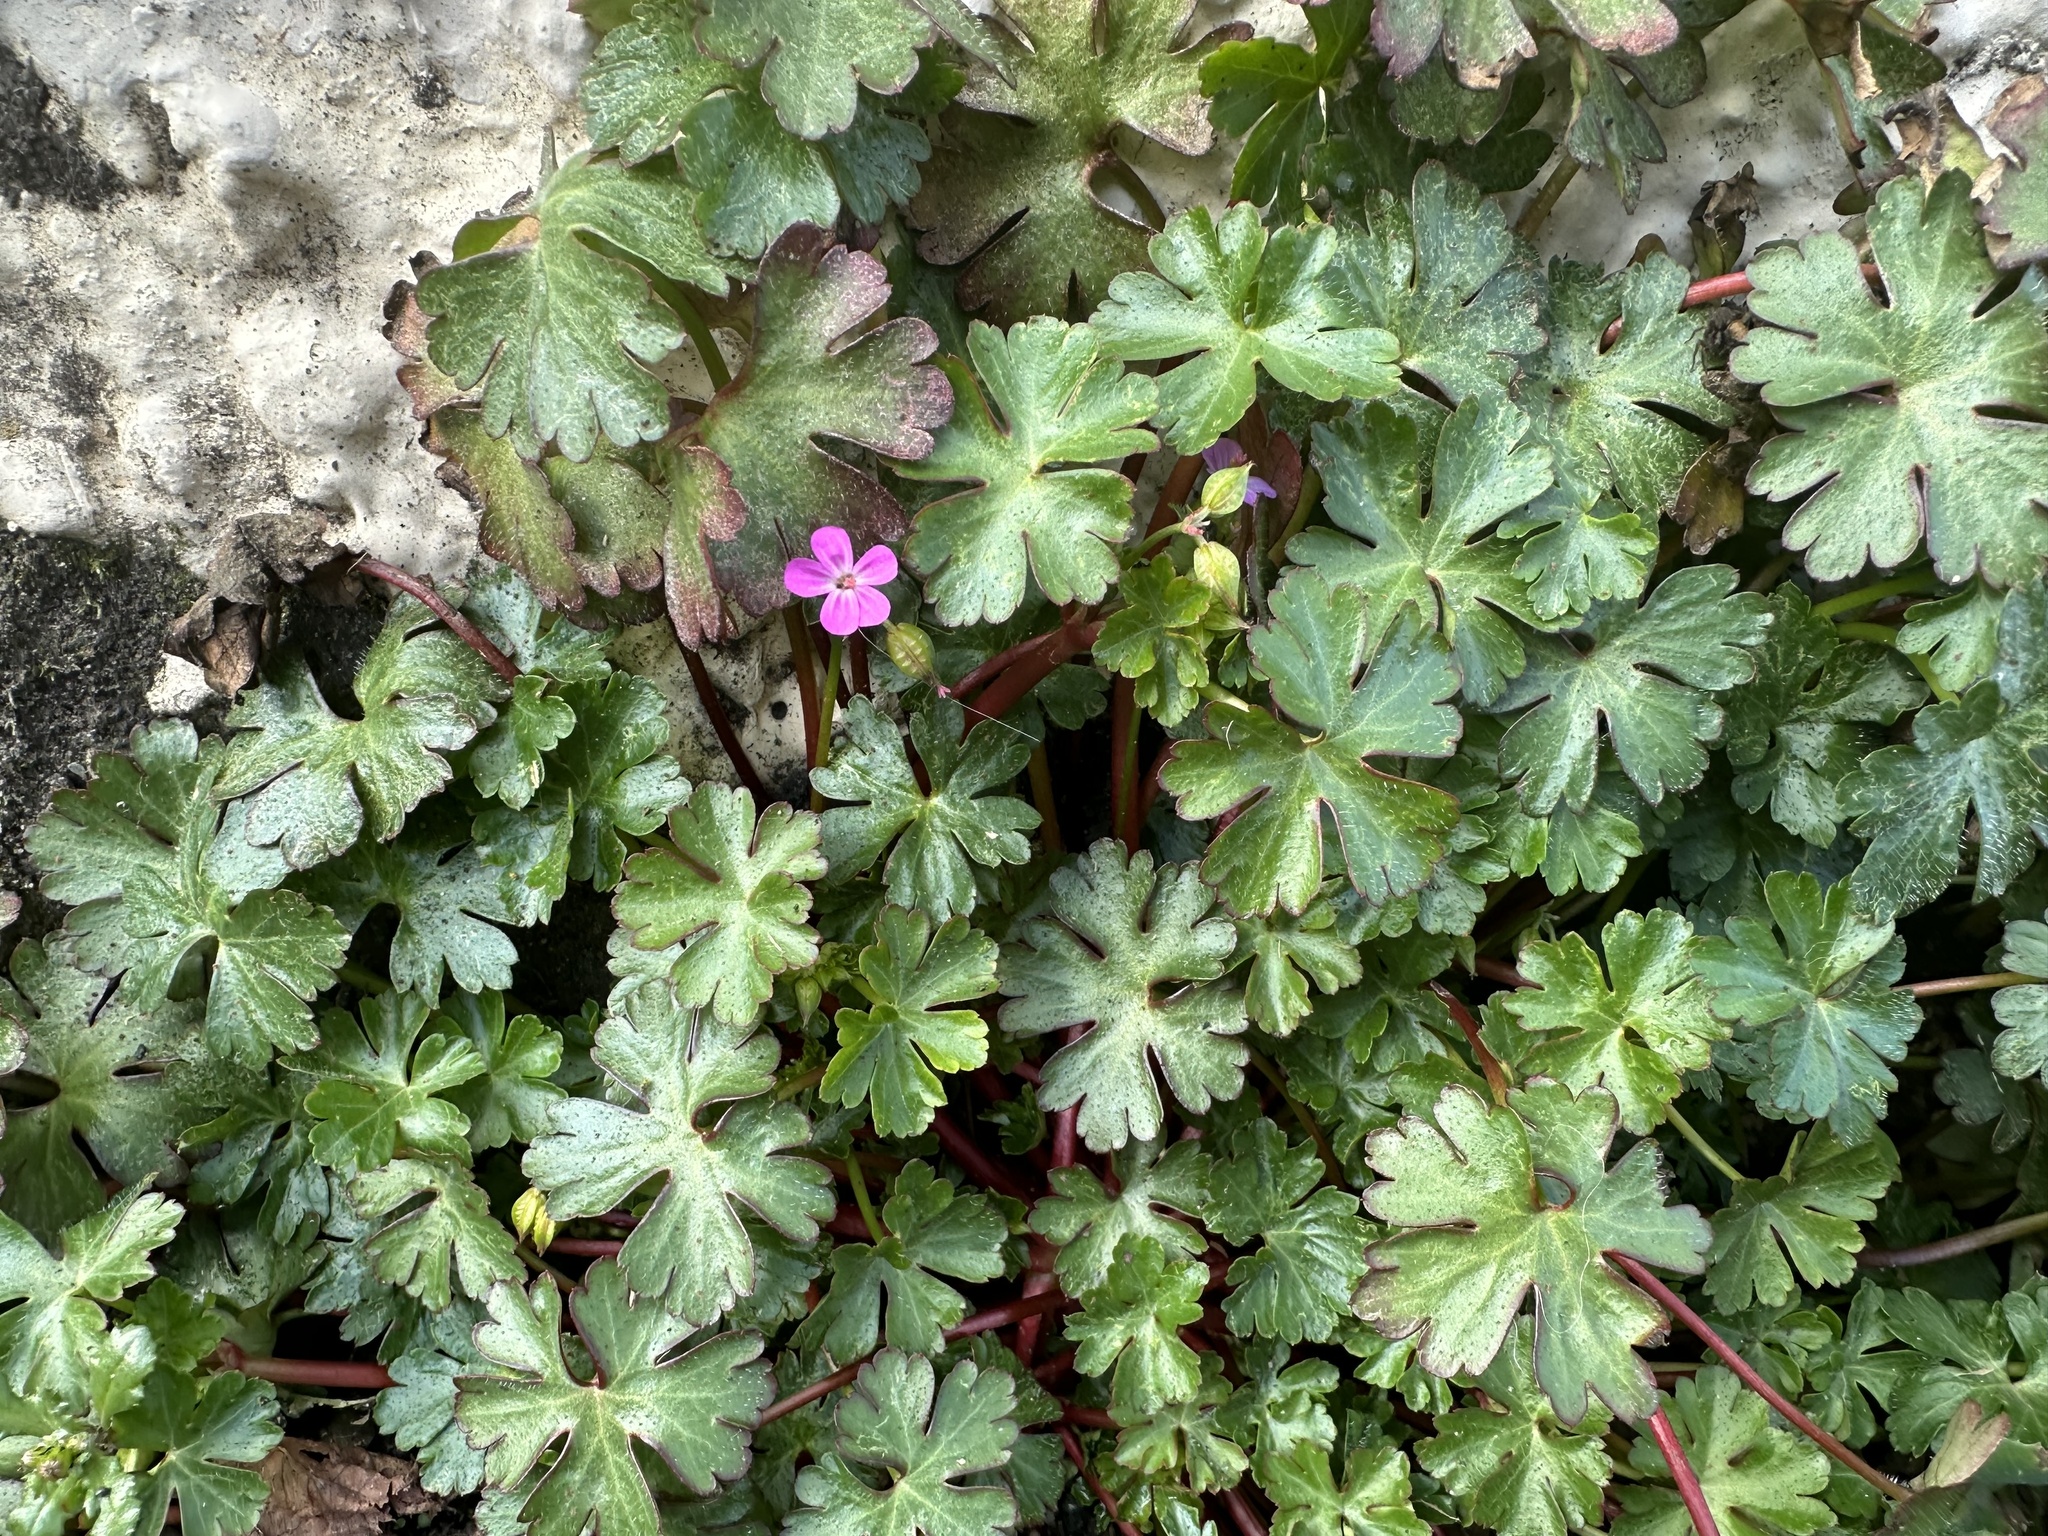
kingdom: Plantae
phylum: Tracheophyta
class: Magnoliopsida
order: Geraniales
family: Geraniaceae
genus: Geranium
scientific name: Geranium lucidum
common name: Shining crane's-bill
